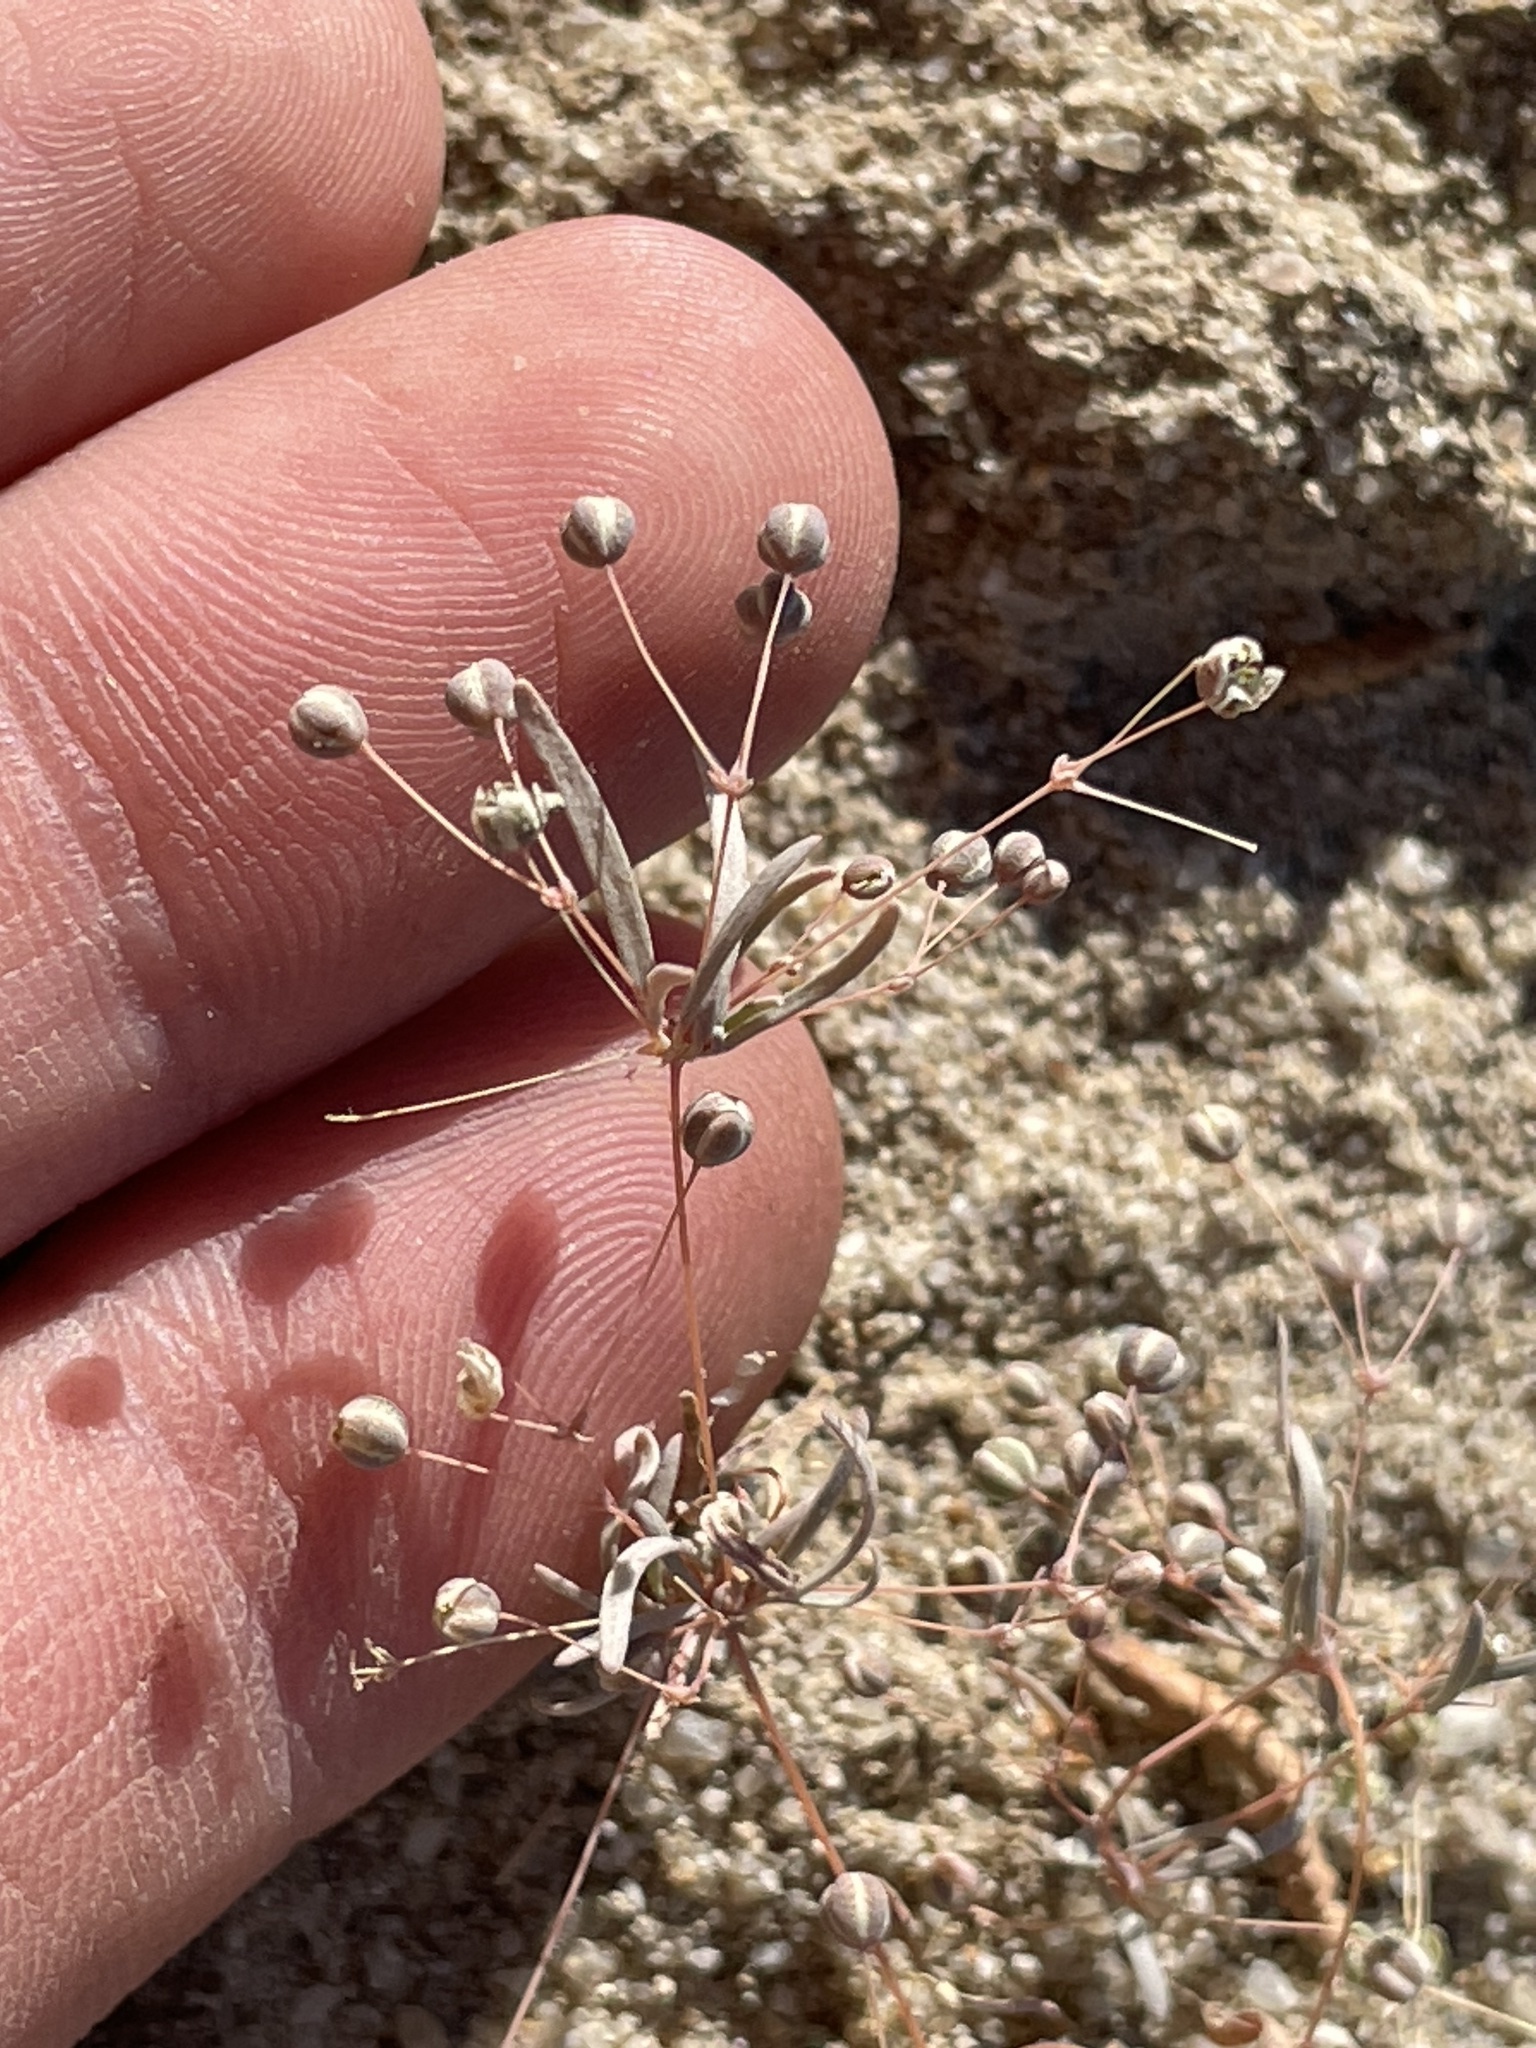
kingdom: Plantae
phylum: Tracheophyta
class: Magnoliopsida
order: Caryophyllales
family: Caryophyllaceae
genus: Drymaria
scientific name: Drymaria molluginea
